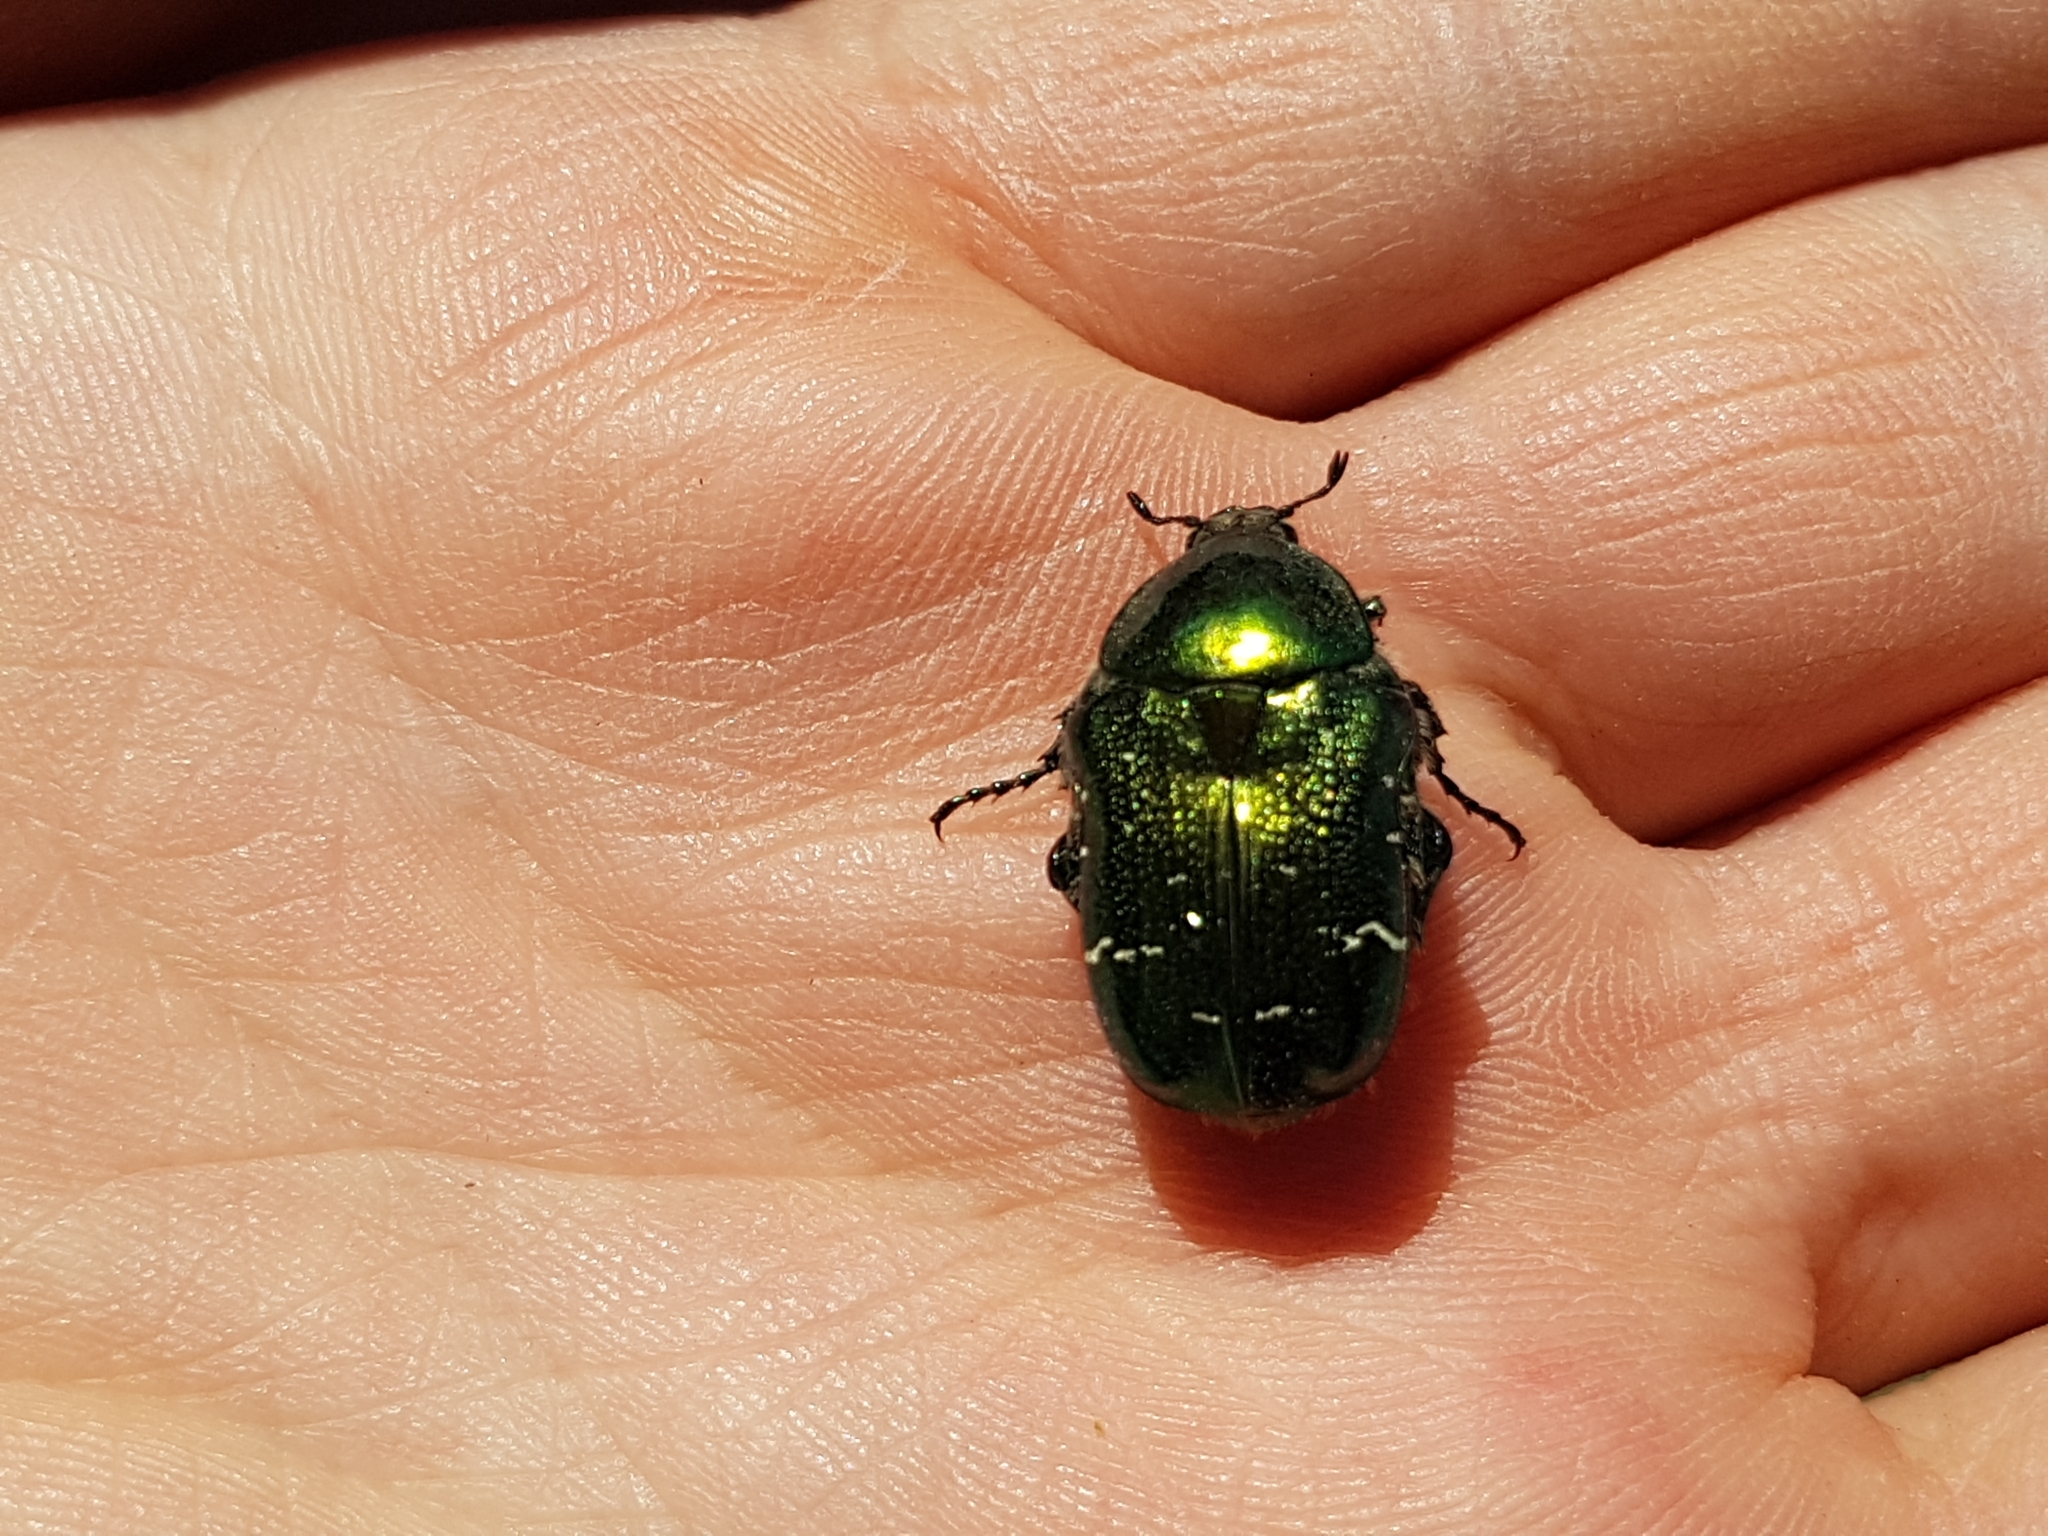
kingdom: Animalia
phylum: Arthropoda
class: Insecta
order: Coleoptera
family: Scarabaeidae
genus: Cetonia
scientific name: Cetonia aurata
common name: Rose chafer
